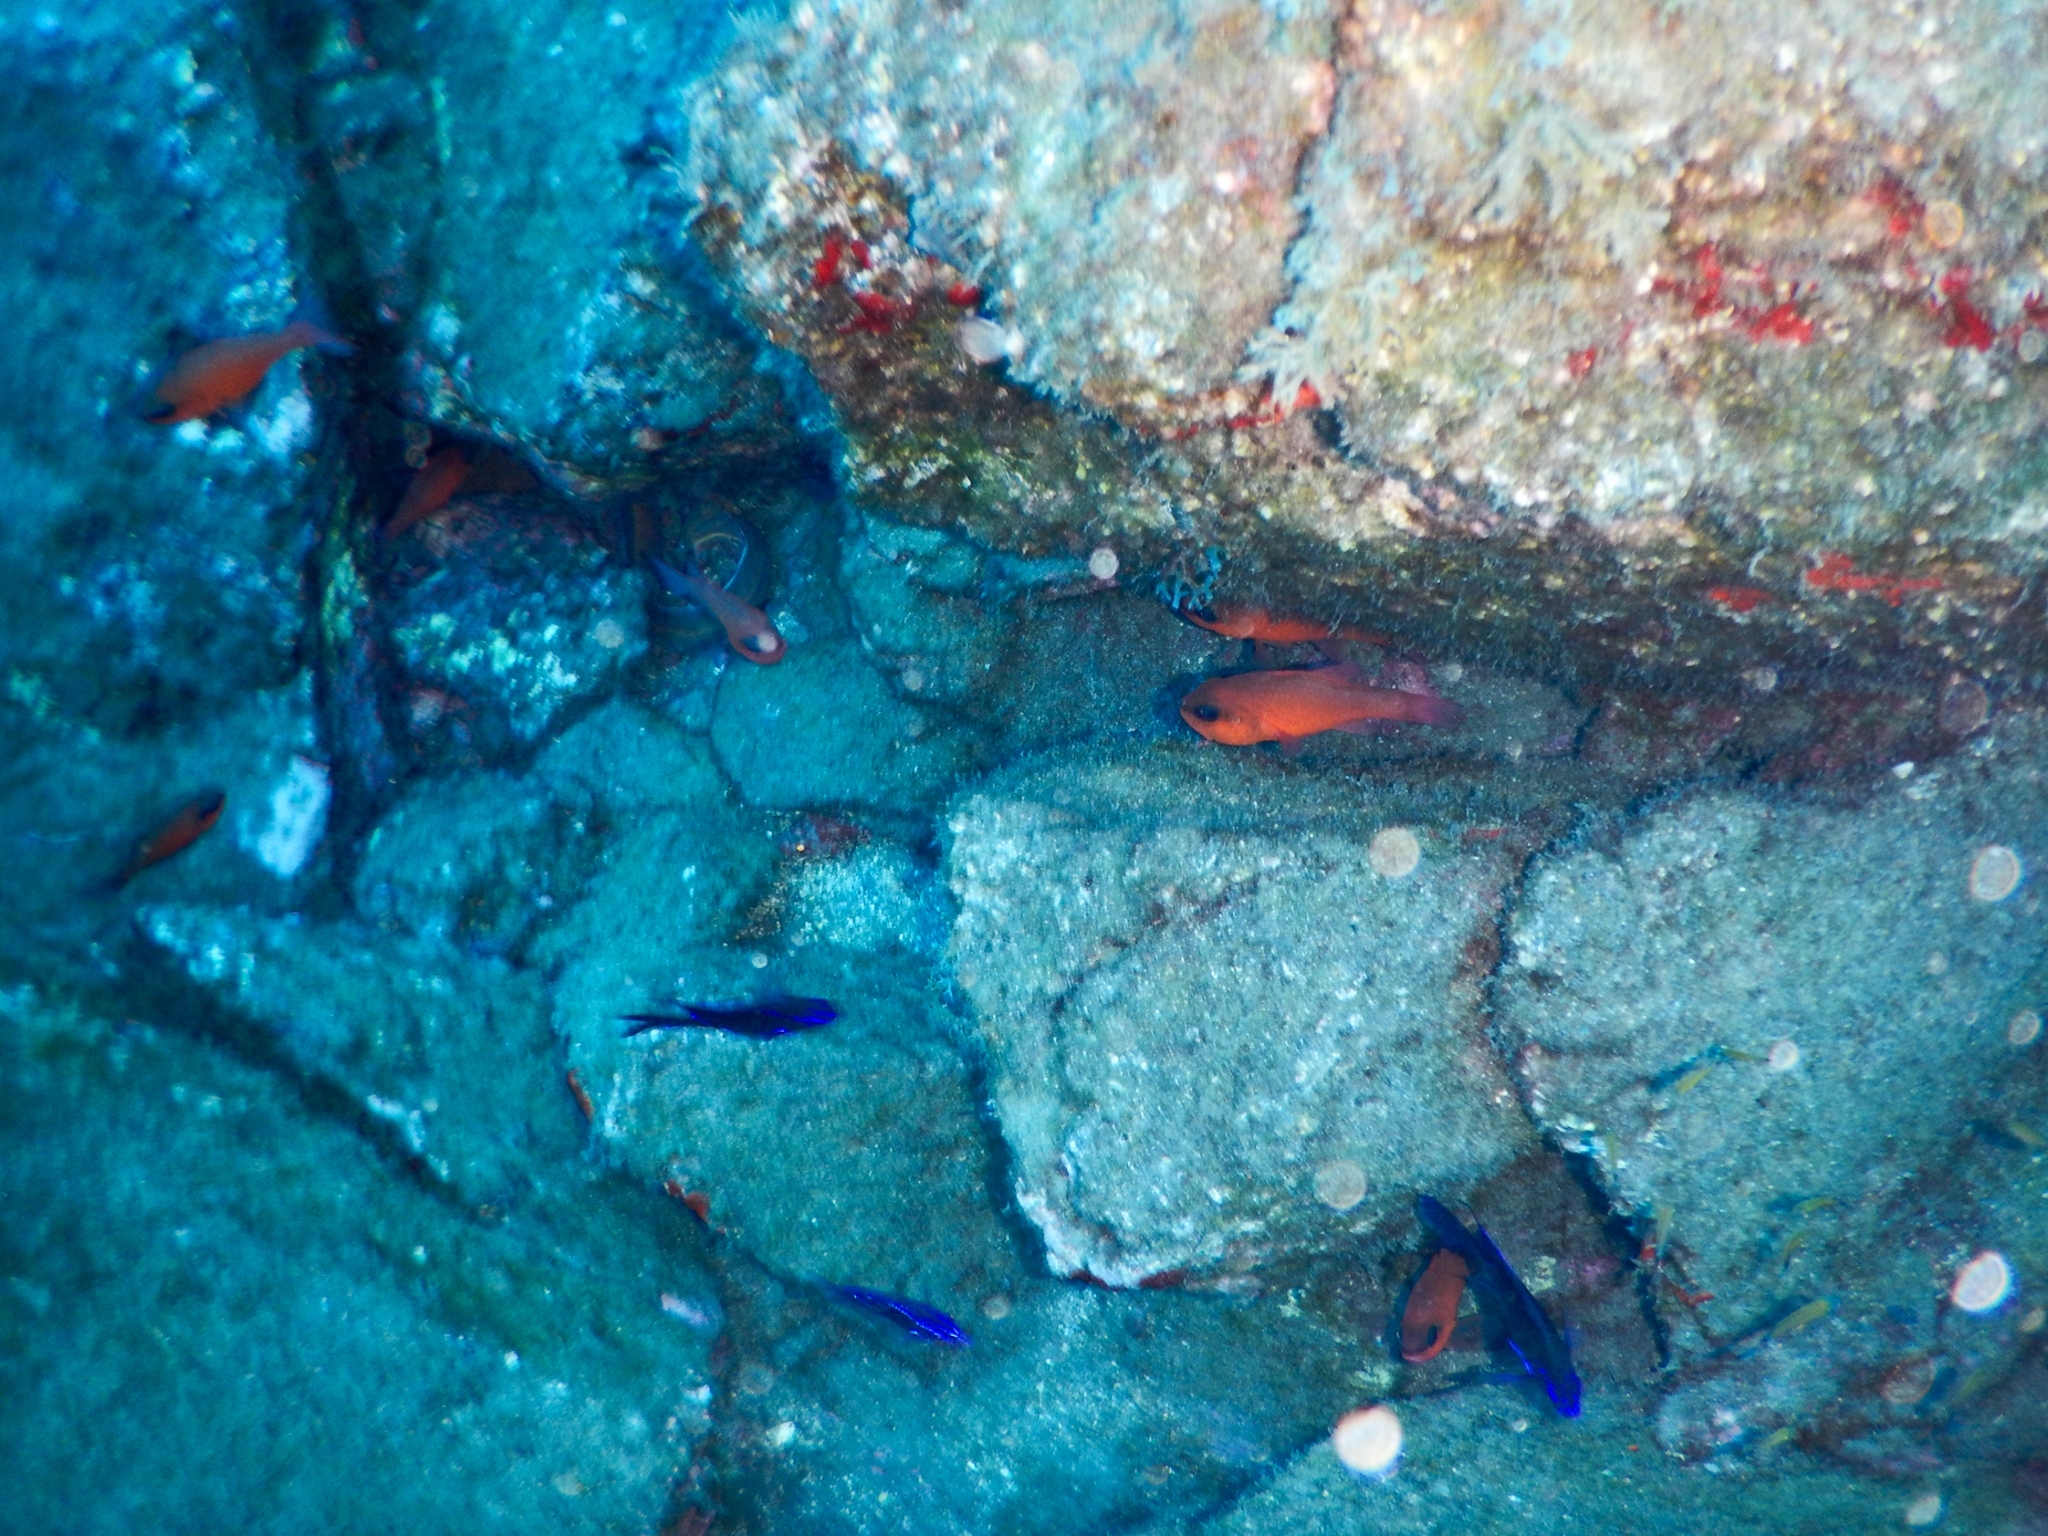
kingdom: Animalia
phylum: Chordata
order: Perciformes
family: Apogonidae
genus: Apogon
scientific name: Apogon imberbis
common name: Cardinal fish
